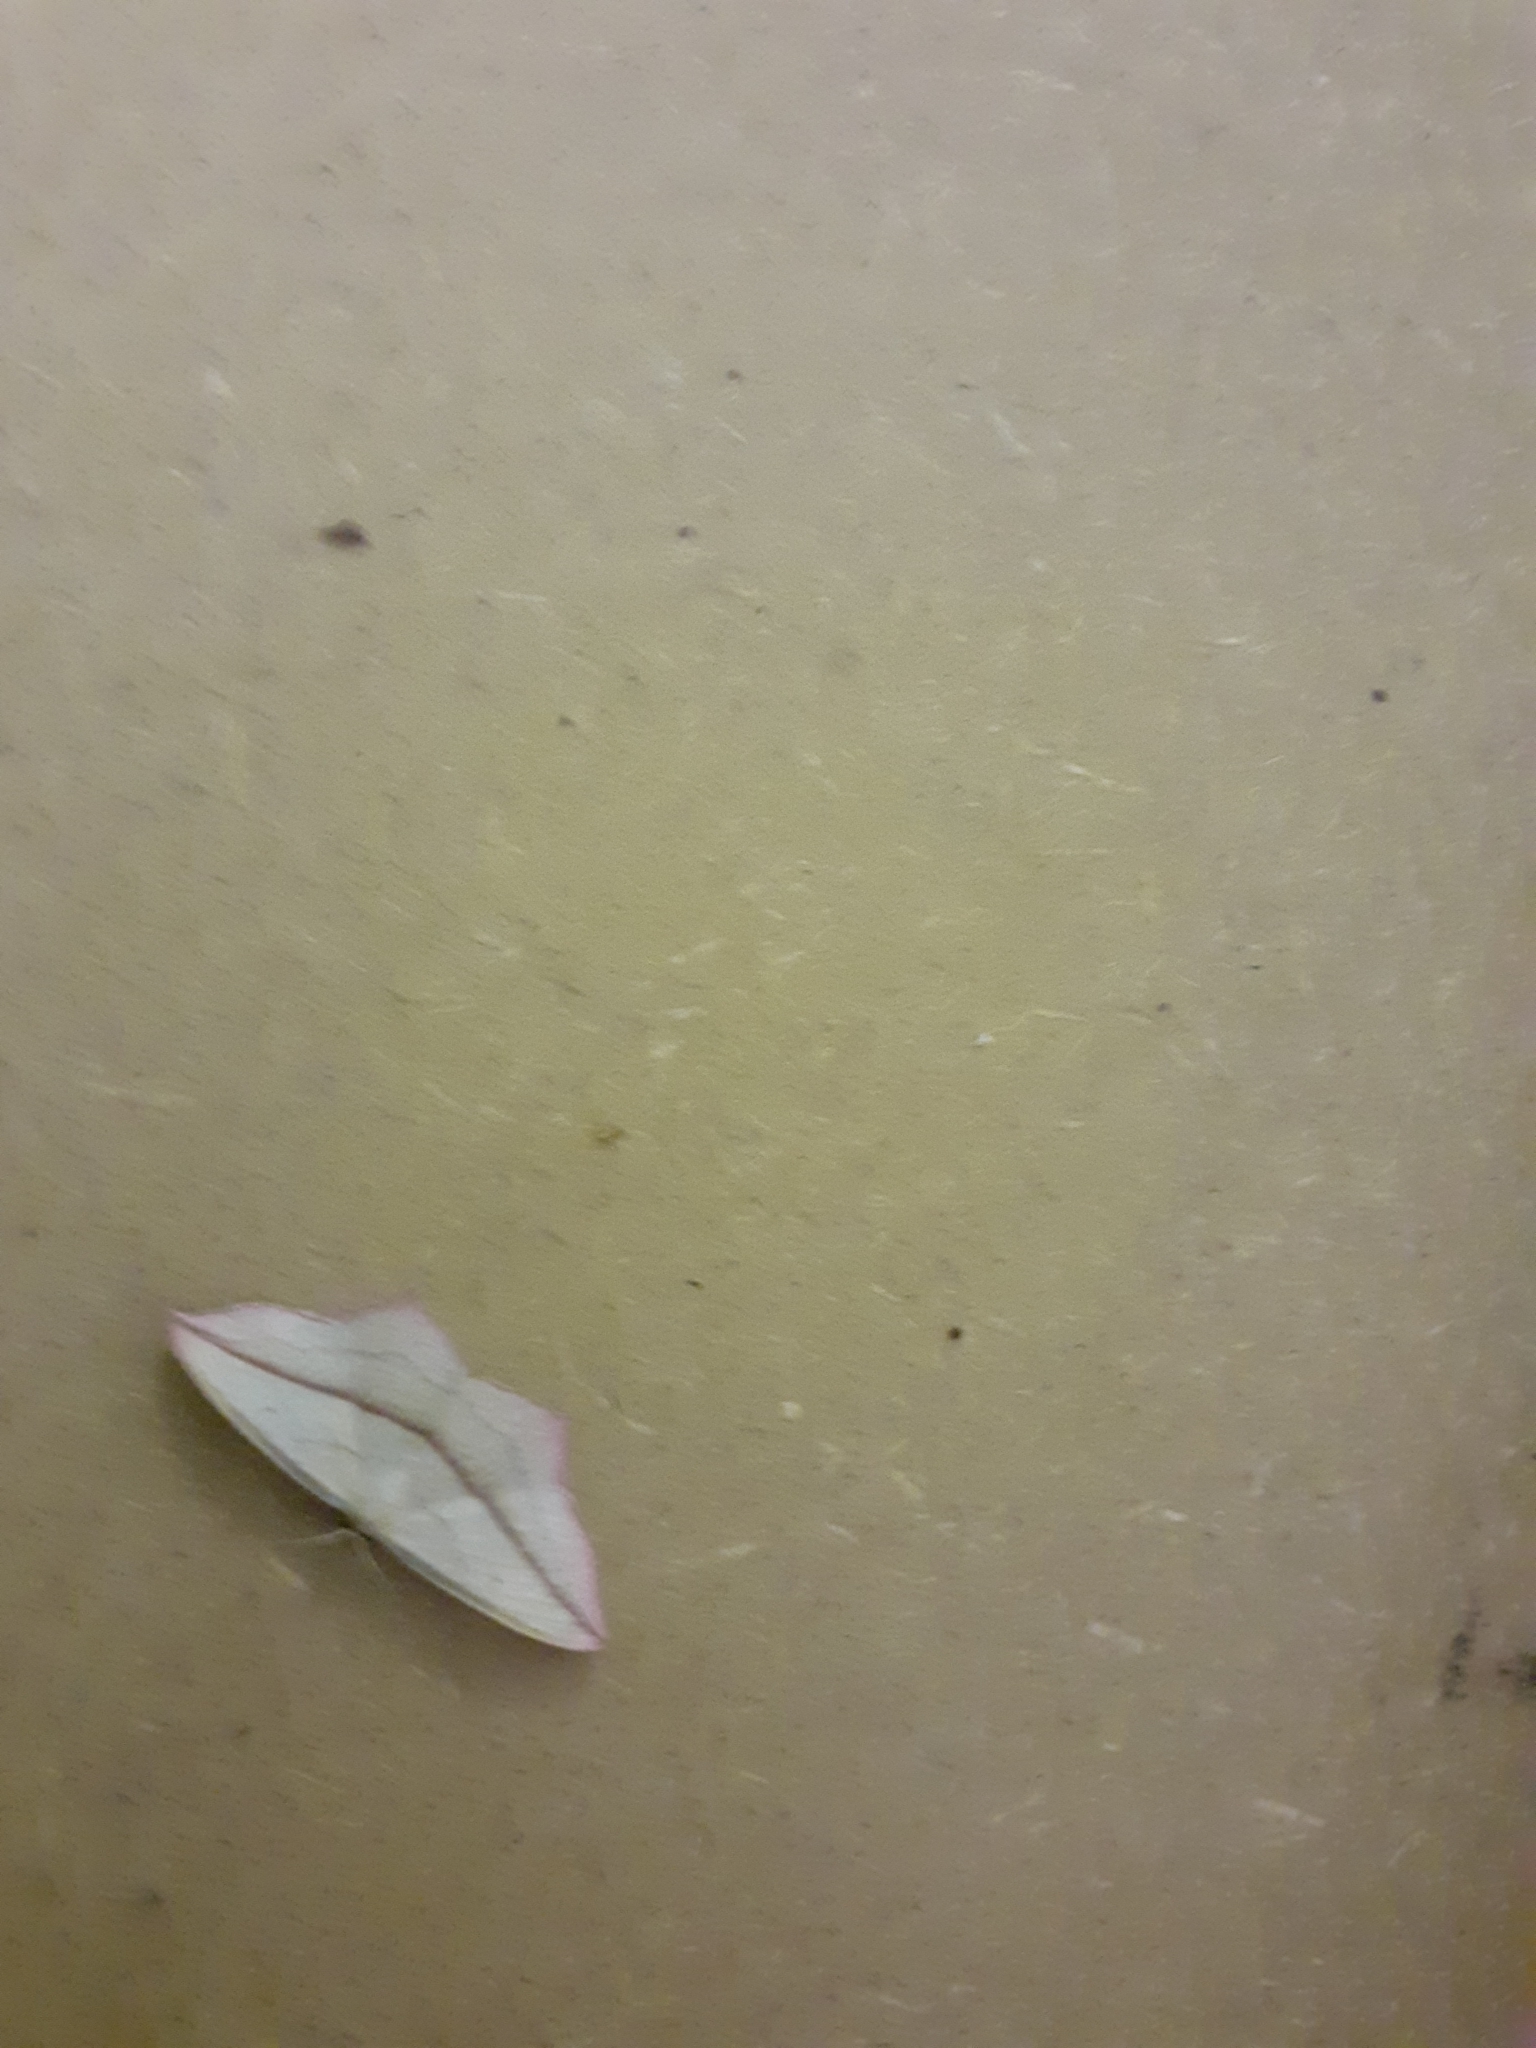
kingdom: Animalia
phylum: Arthropoda
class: Insecta
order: Lepidoptera
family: Geometridae
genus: Timandra
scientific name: Timandra comae
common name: Blood-vein
